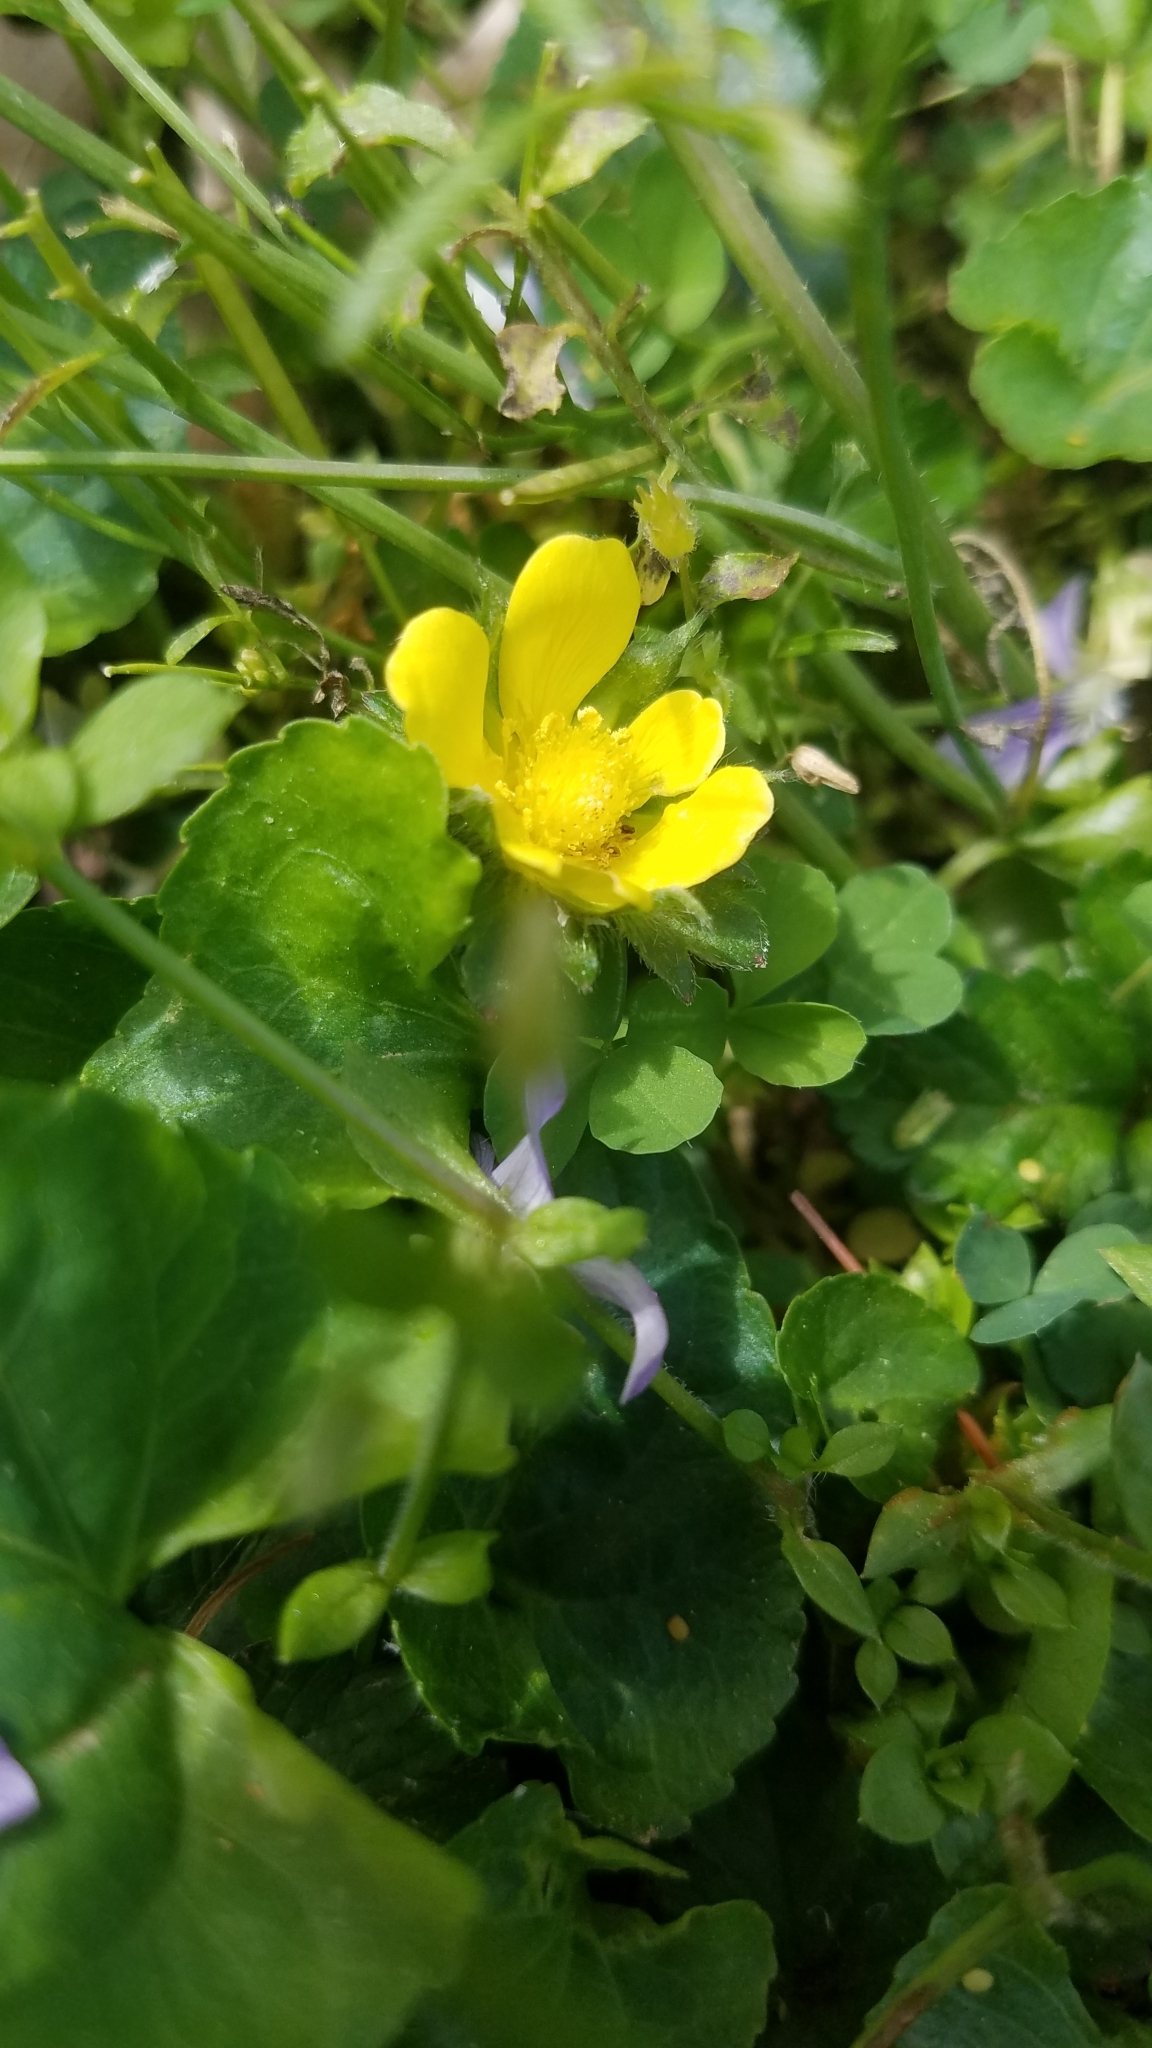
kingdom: Plantae
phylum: Tracheophyta
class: Magnoliopsida
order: Rosales
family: Rosaceae
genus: Potentilla
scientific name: Potentilla indica
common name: Yellow-flowered strawberry
